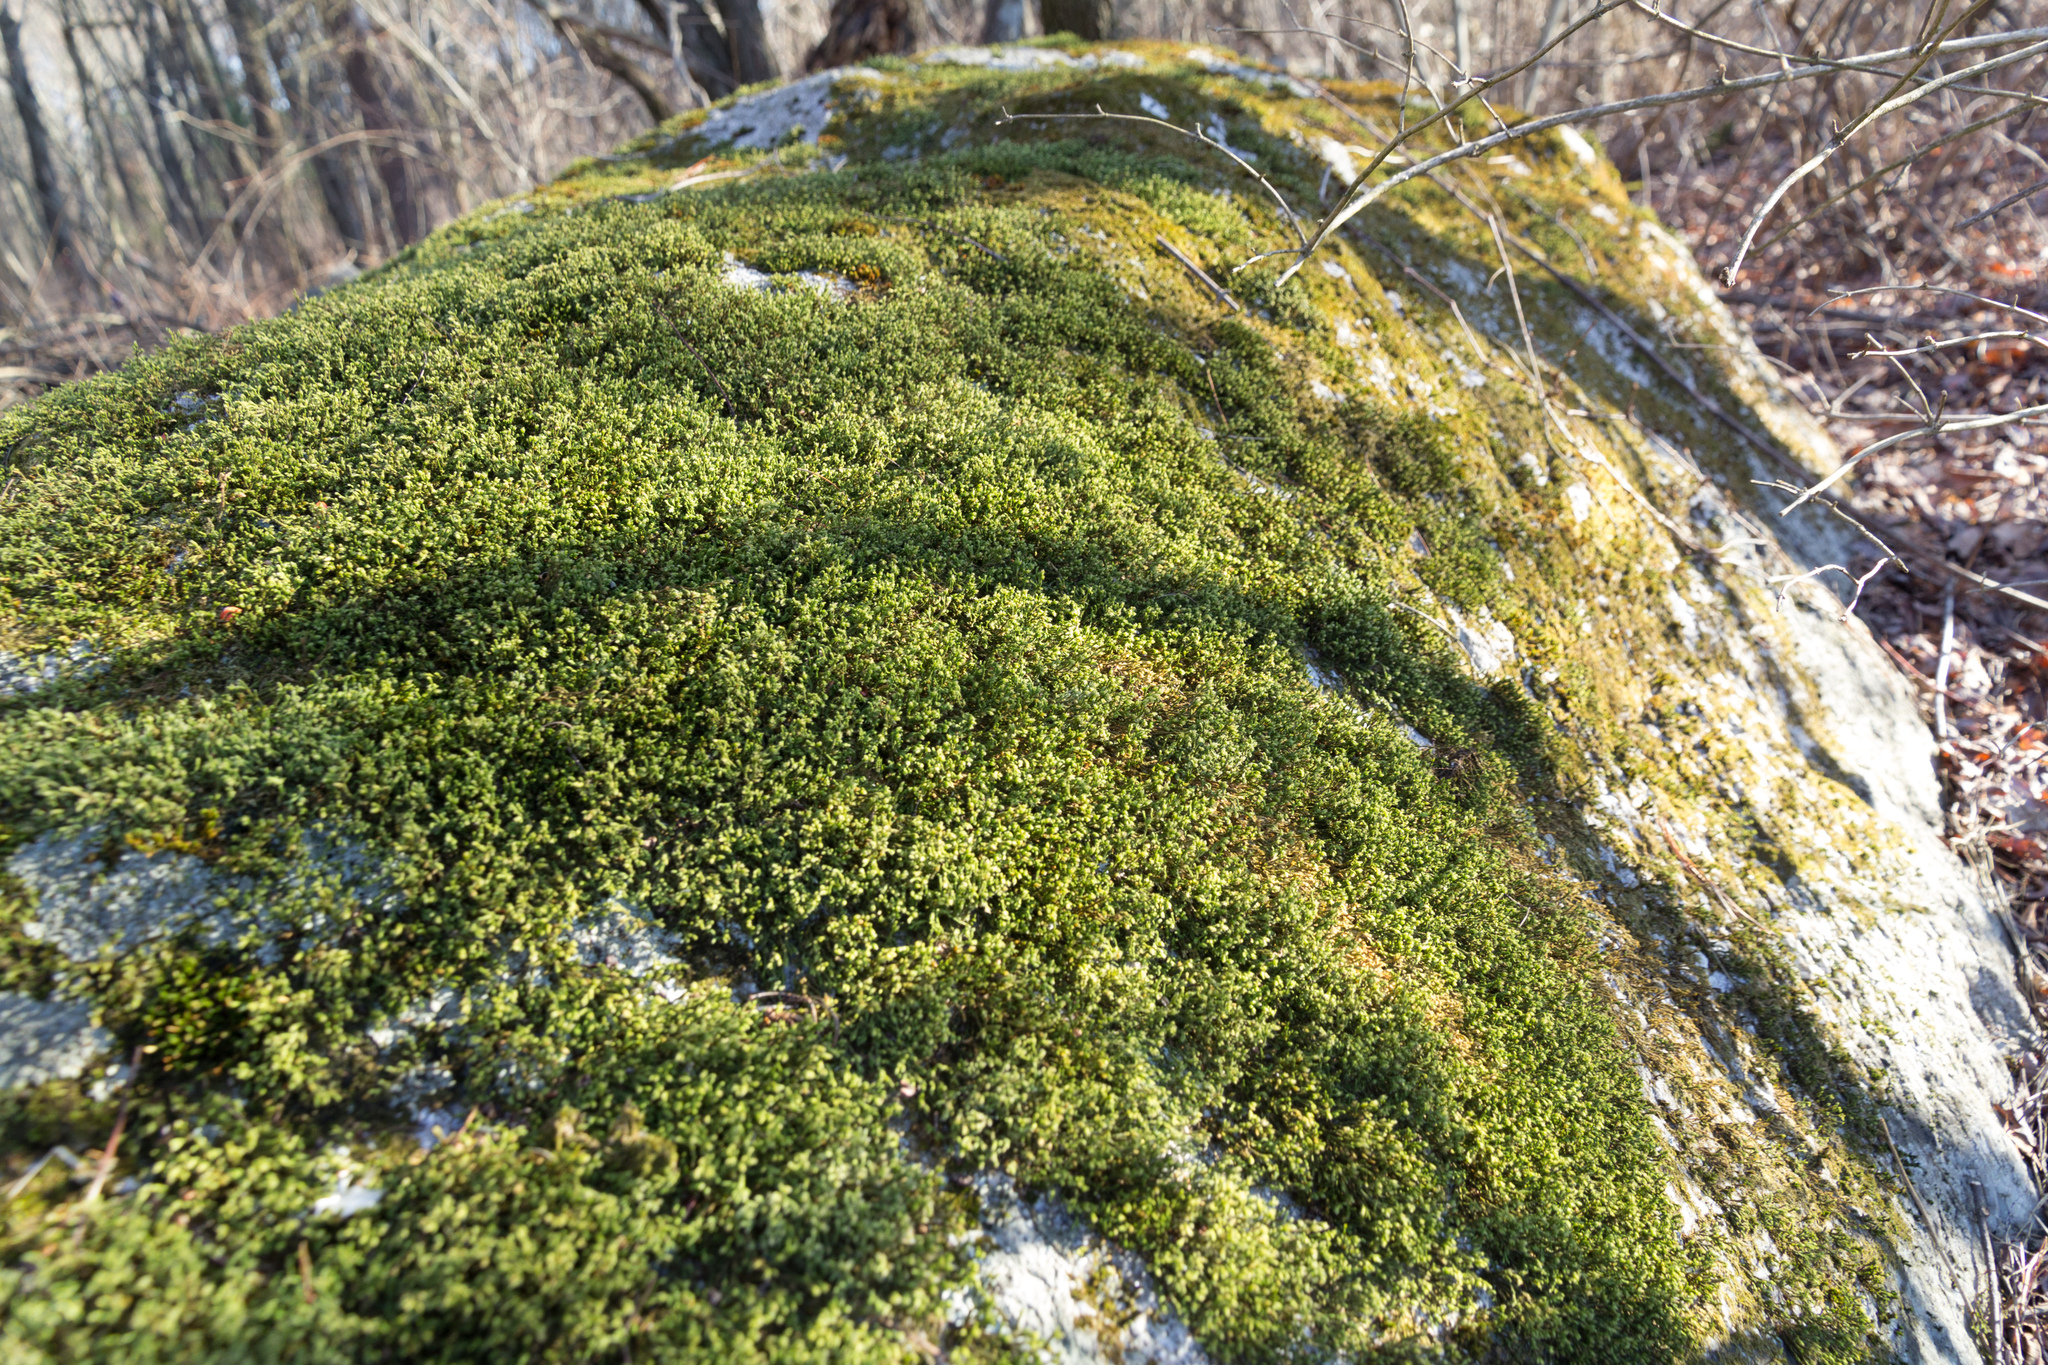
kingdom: Plantae
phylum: Bryophyta
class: Bryopsida
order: Hedwigiales
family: Hedwigiaceae
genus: Hedwigia
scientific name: Hedwigia ciliata
